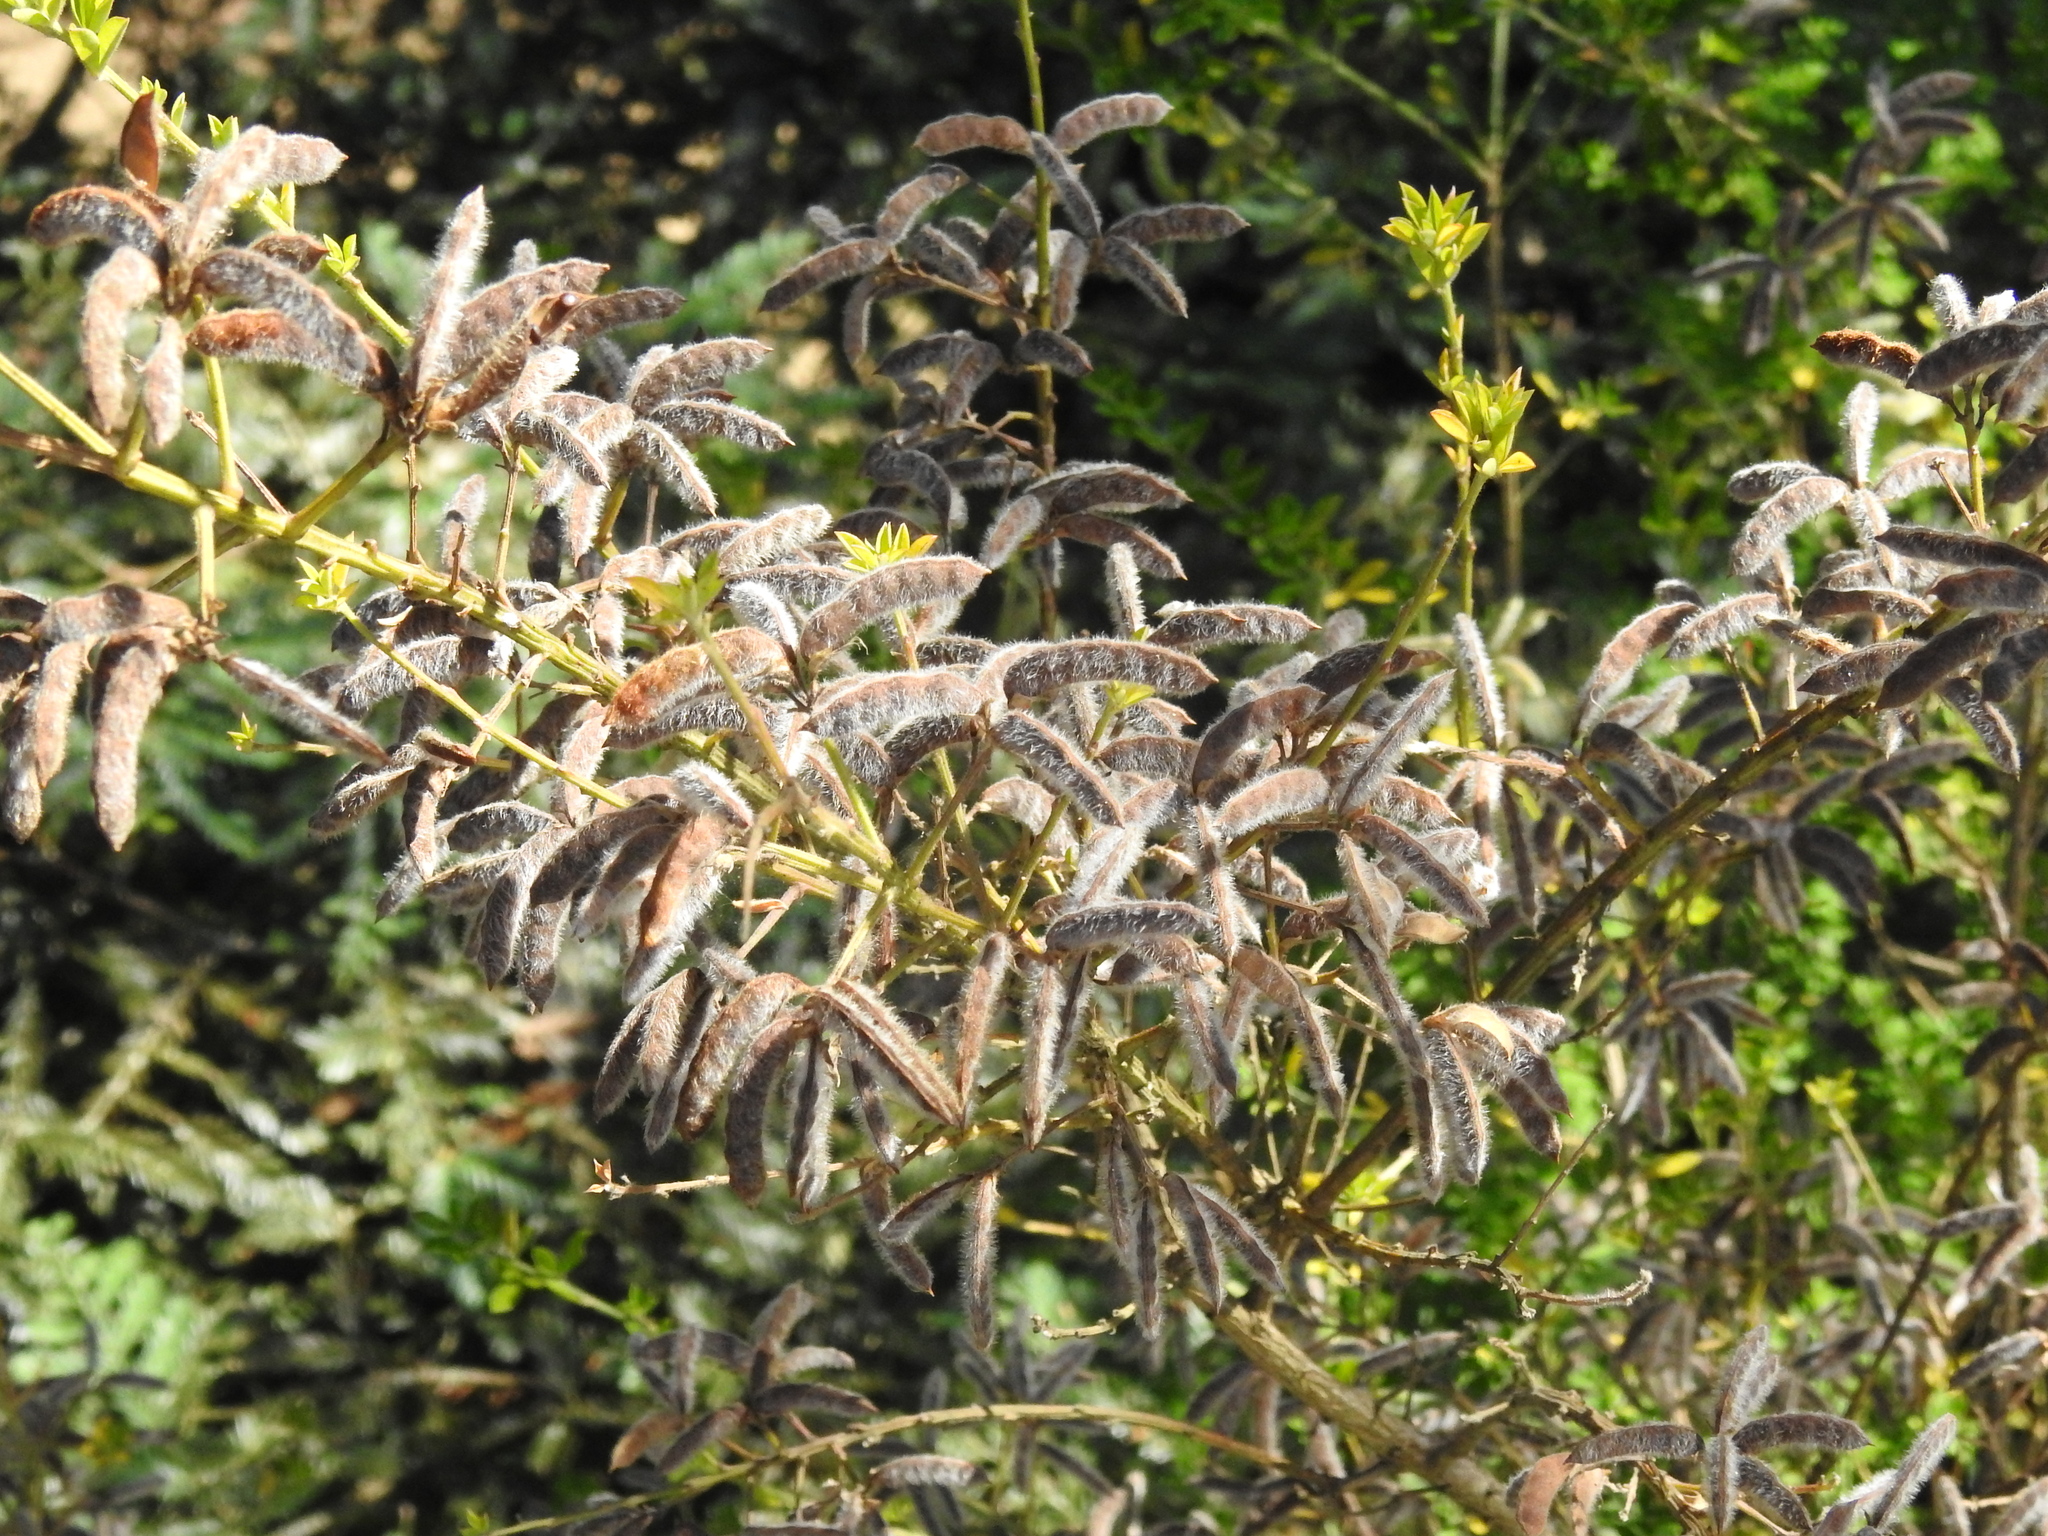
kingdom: Plantae
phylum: Tracheophyta
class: Magnoliopsida
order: Fabales
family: Fabaceae
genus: Genista
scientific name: Genista monspessulana
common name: Montpellier broom
